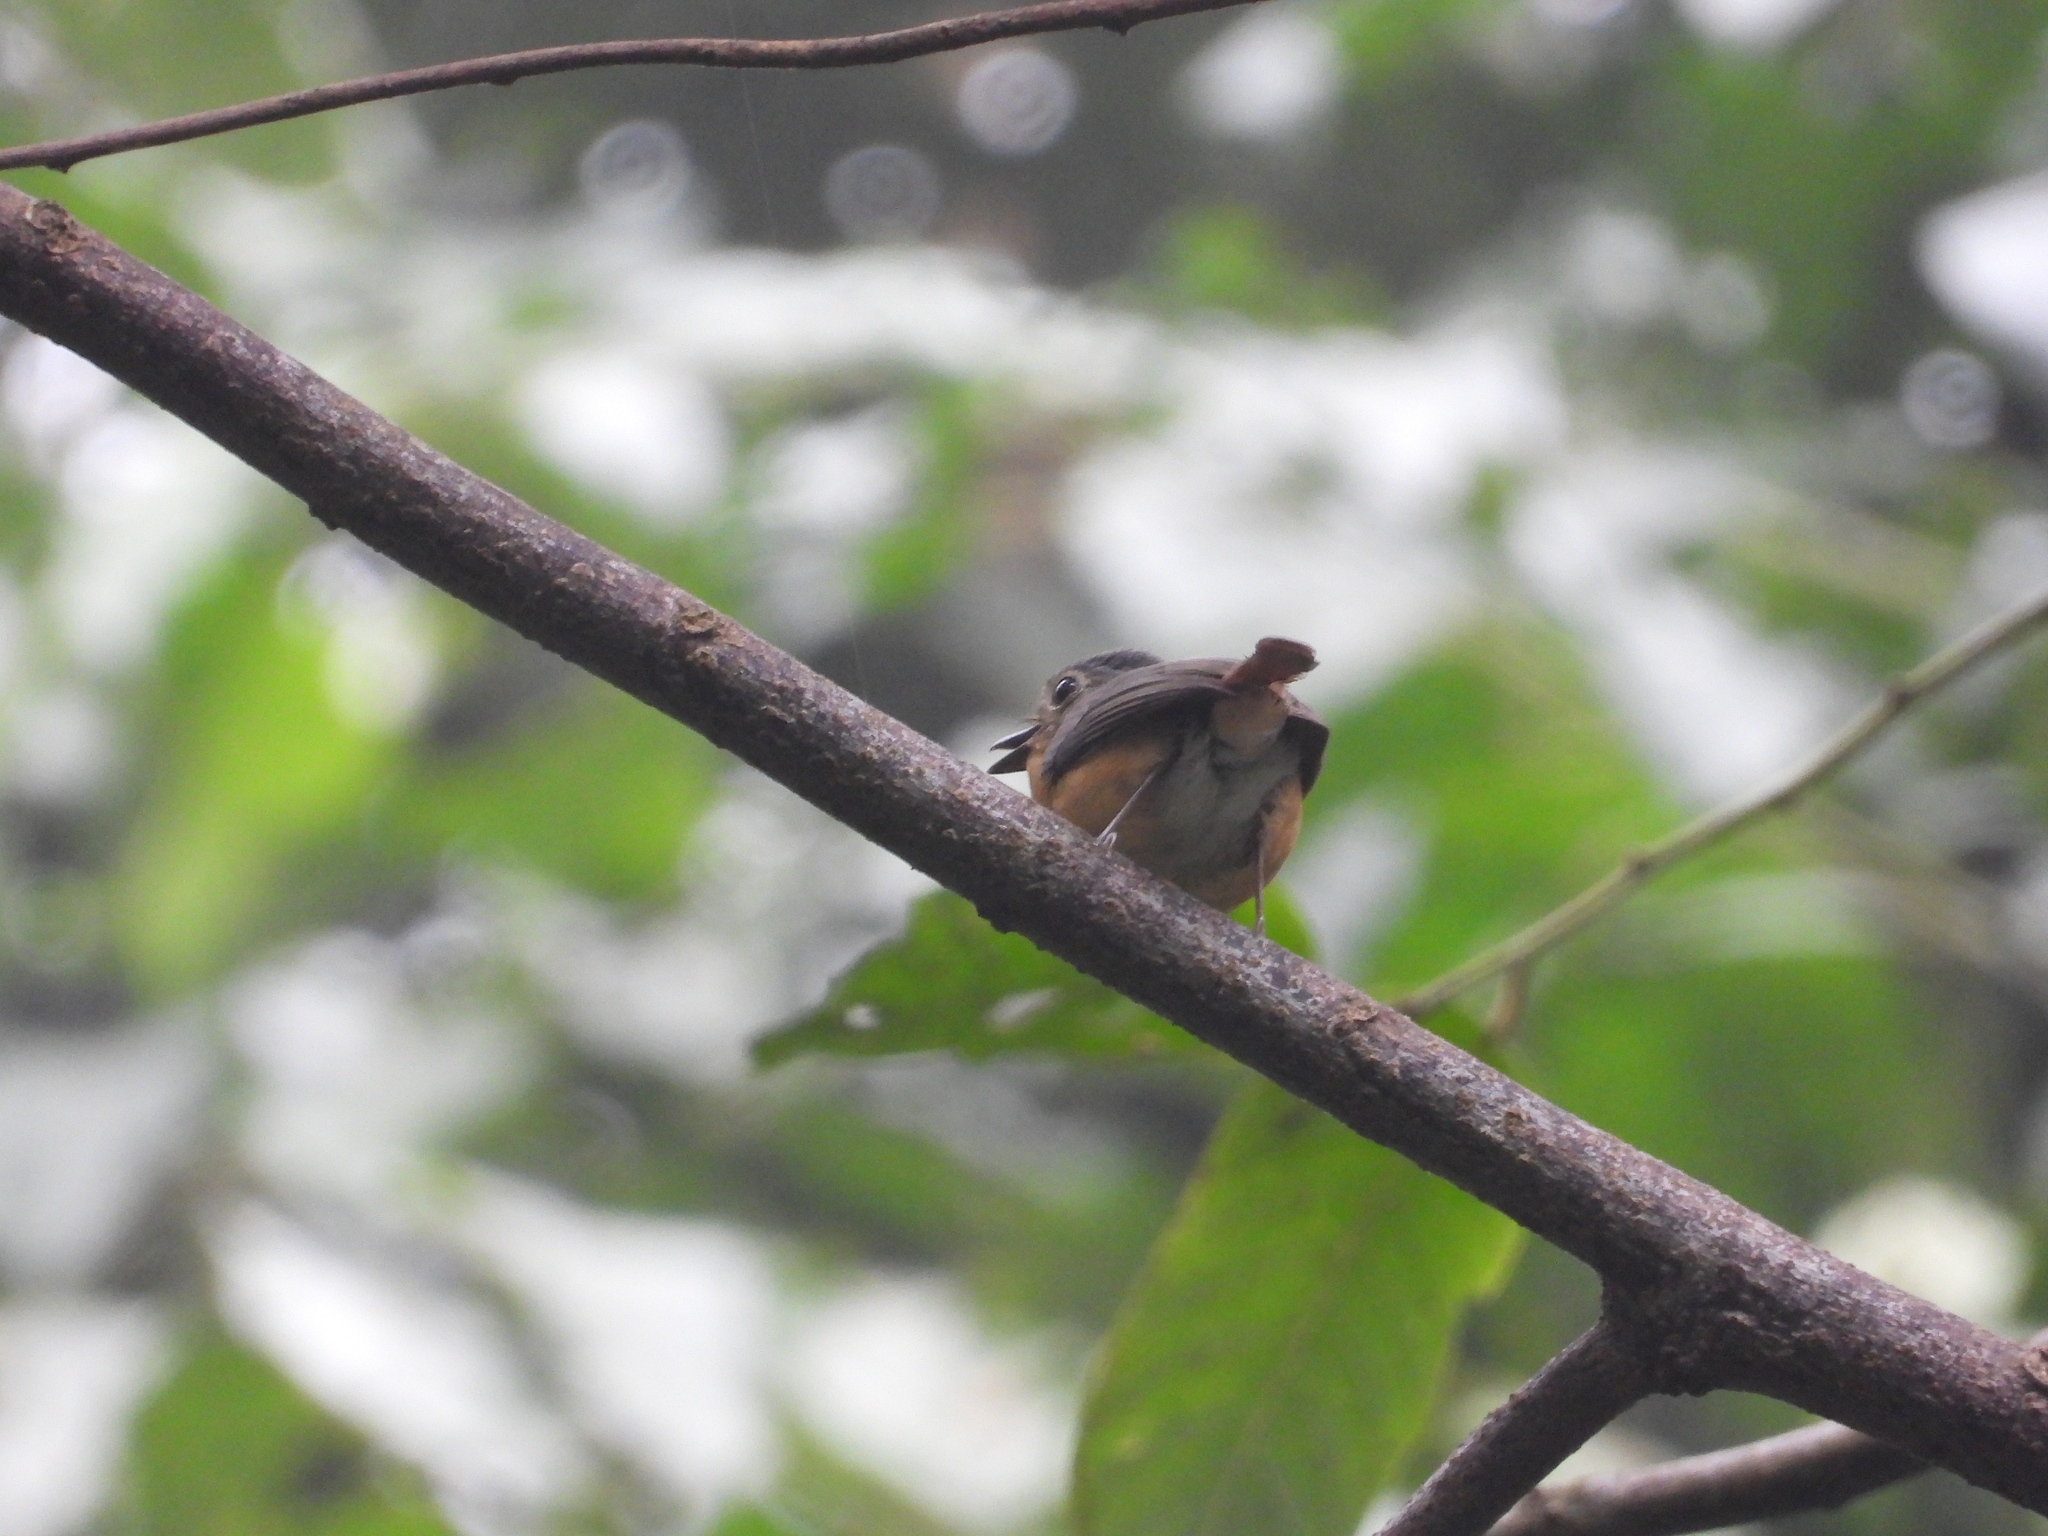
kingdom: Animalia
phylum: Chordata
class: Aves
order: Passeriformes
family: Muscicapidae
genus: Cyornis
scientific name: Cyornis banyumas
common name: Hill blue flycatcher
